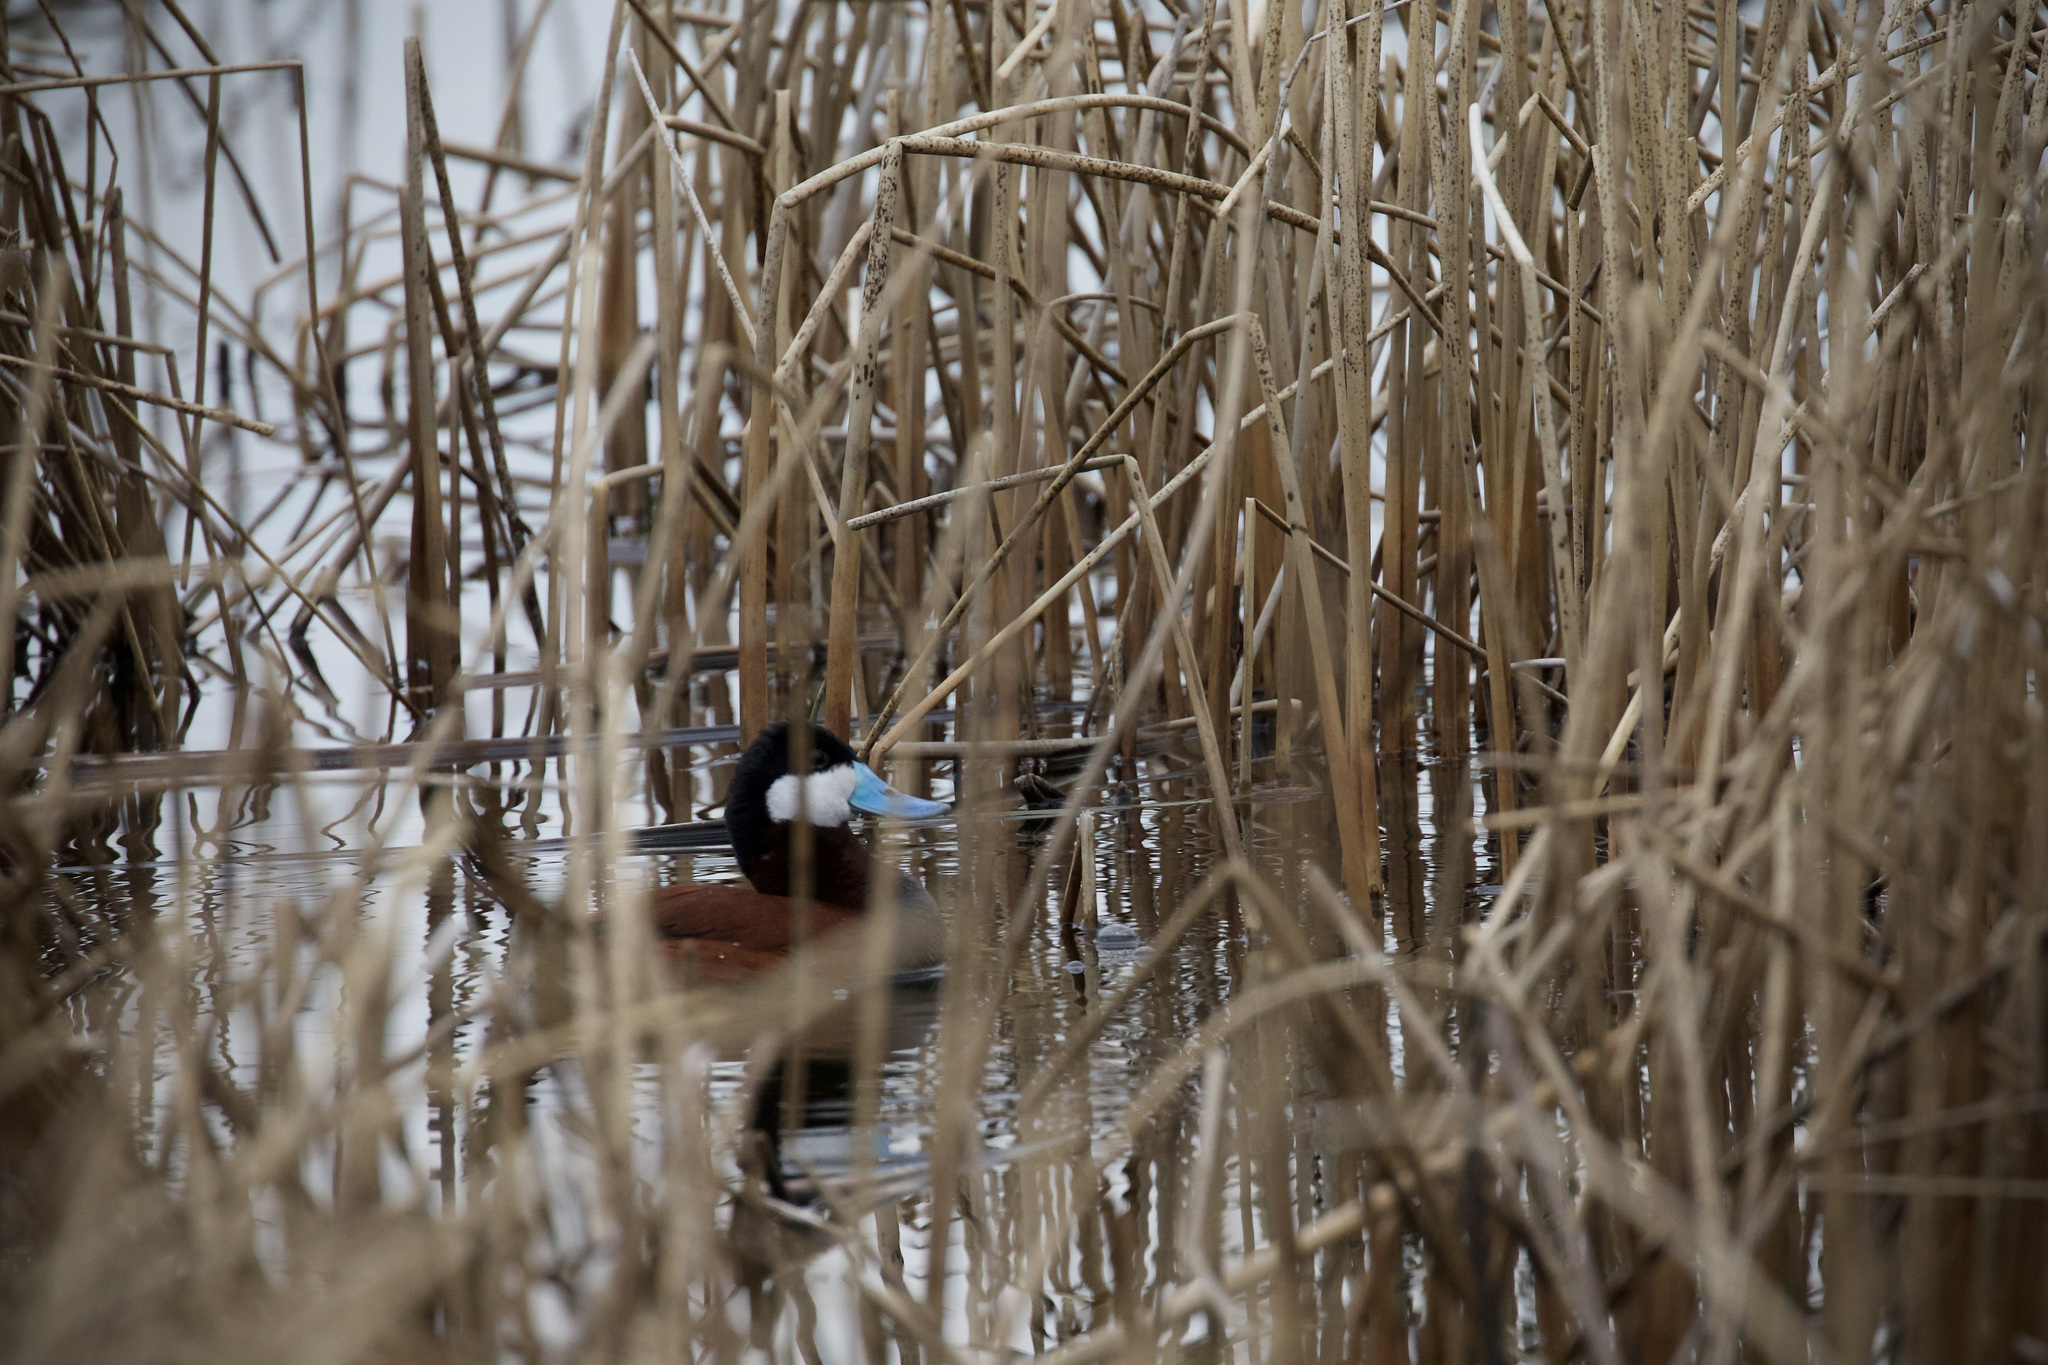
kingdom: Animalia
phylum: Chordata
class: Aves
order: Anseriformes
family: Anatidae
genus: Oxyura
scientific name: Oxyura jamaicensis
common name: Ruddy duck
